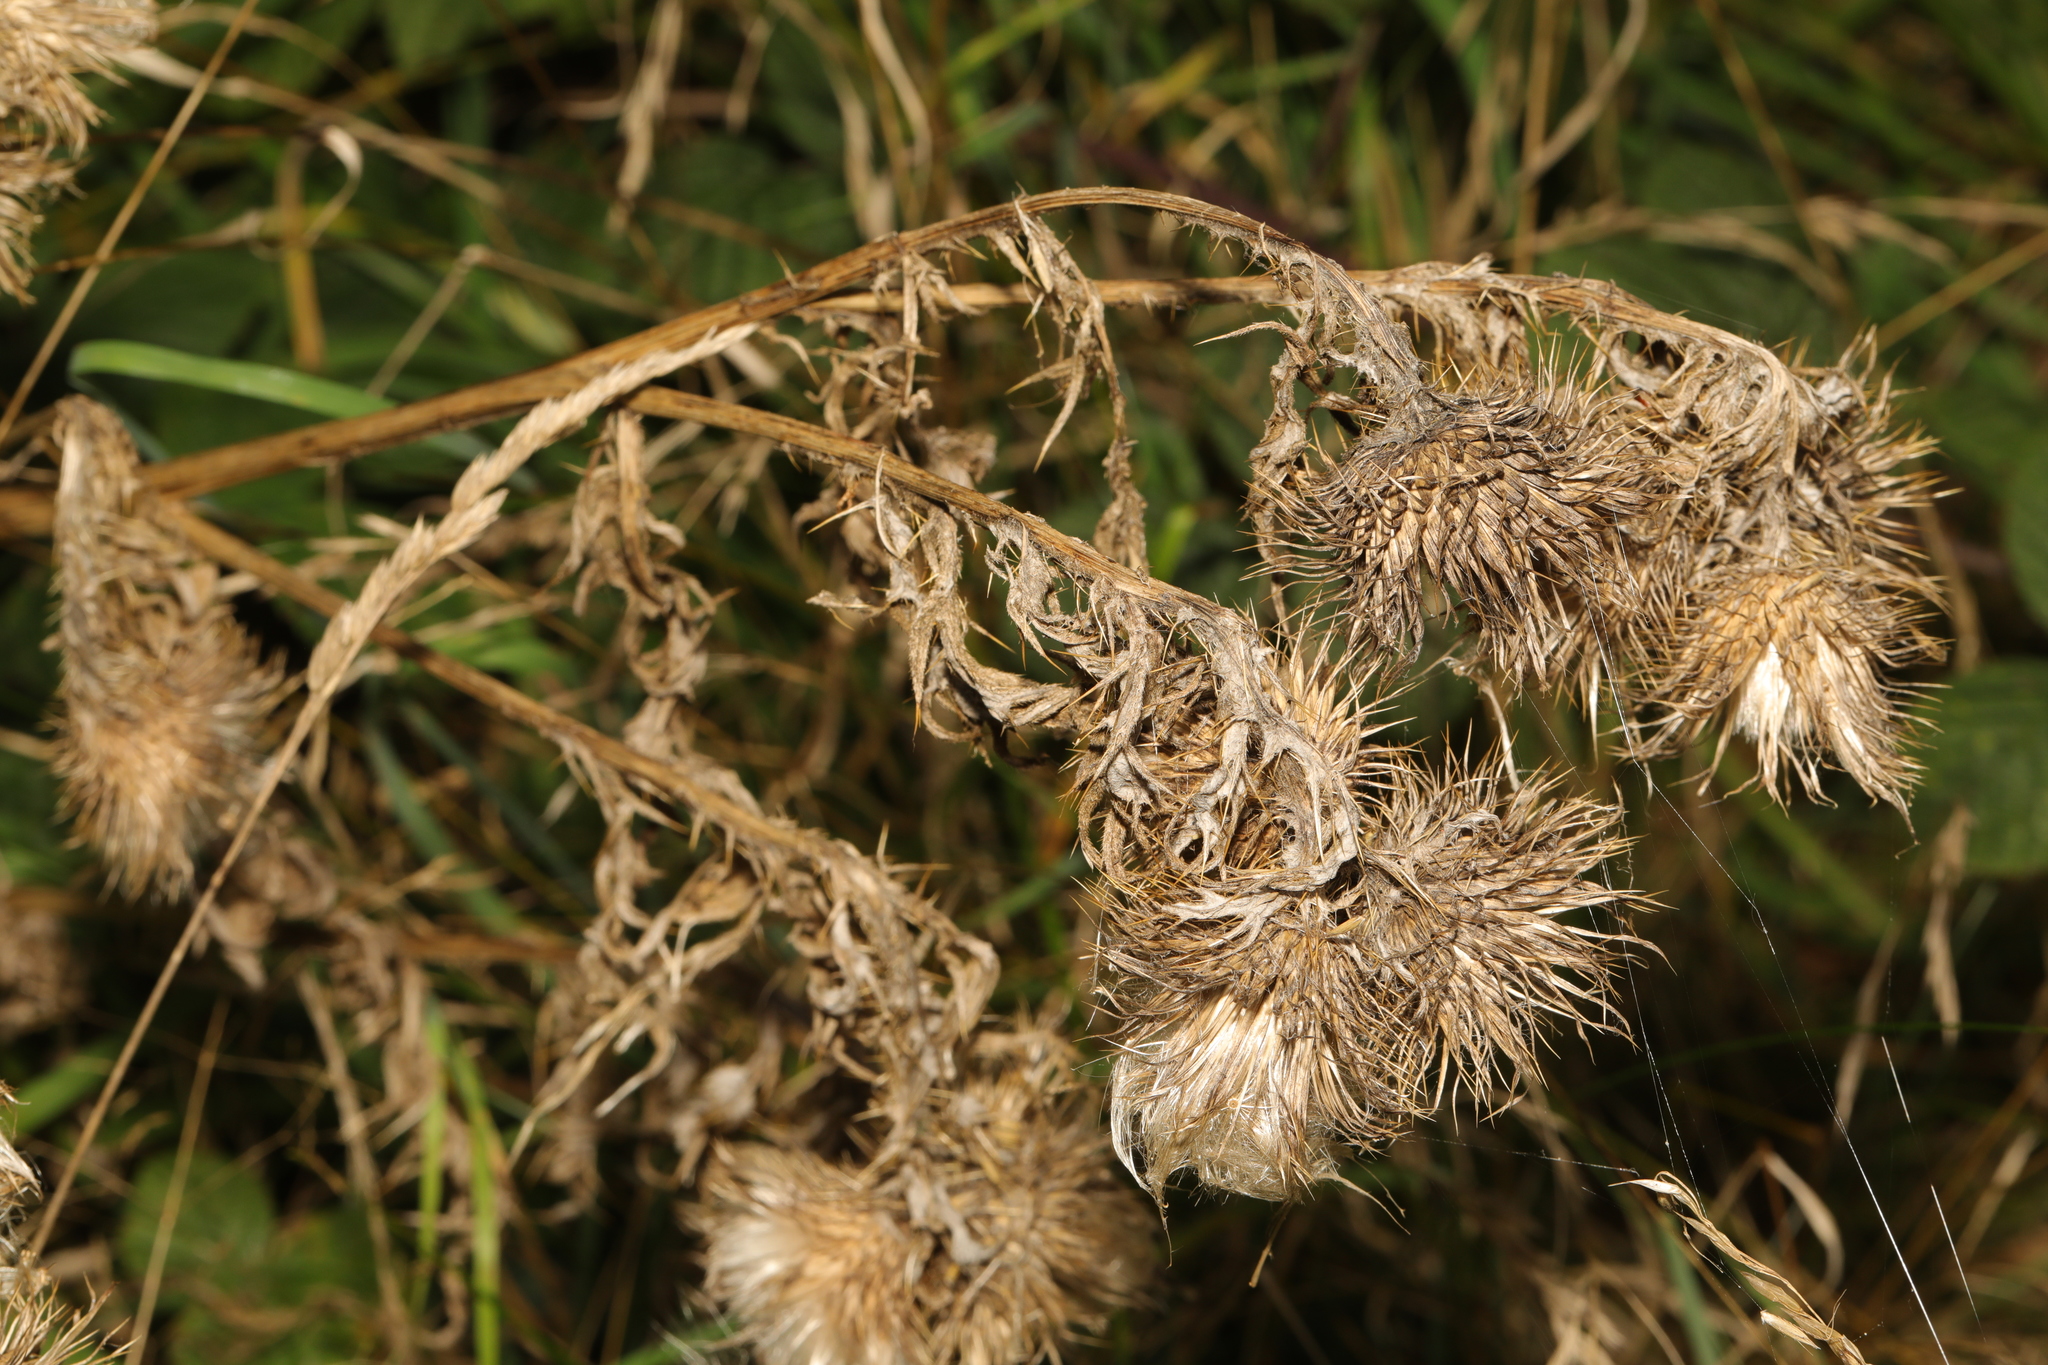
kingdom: Plantae
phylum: Tracheophyta
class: Magnoliopsida
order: Asterales
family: Asteraceae
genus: Cirsium
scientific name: Cirsium vulgare
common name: Bull thistle
